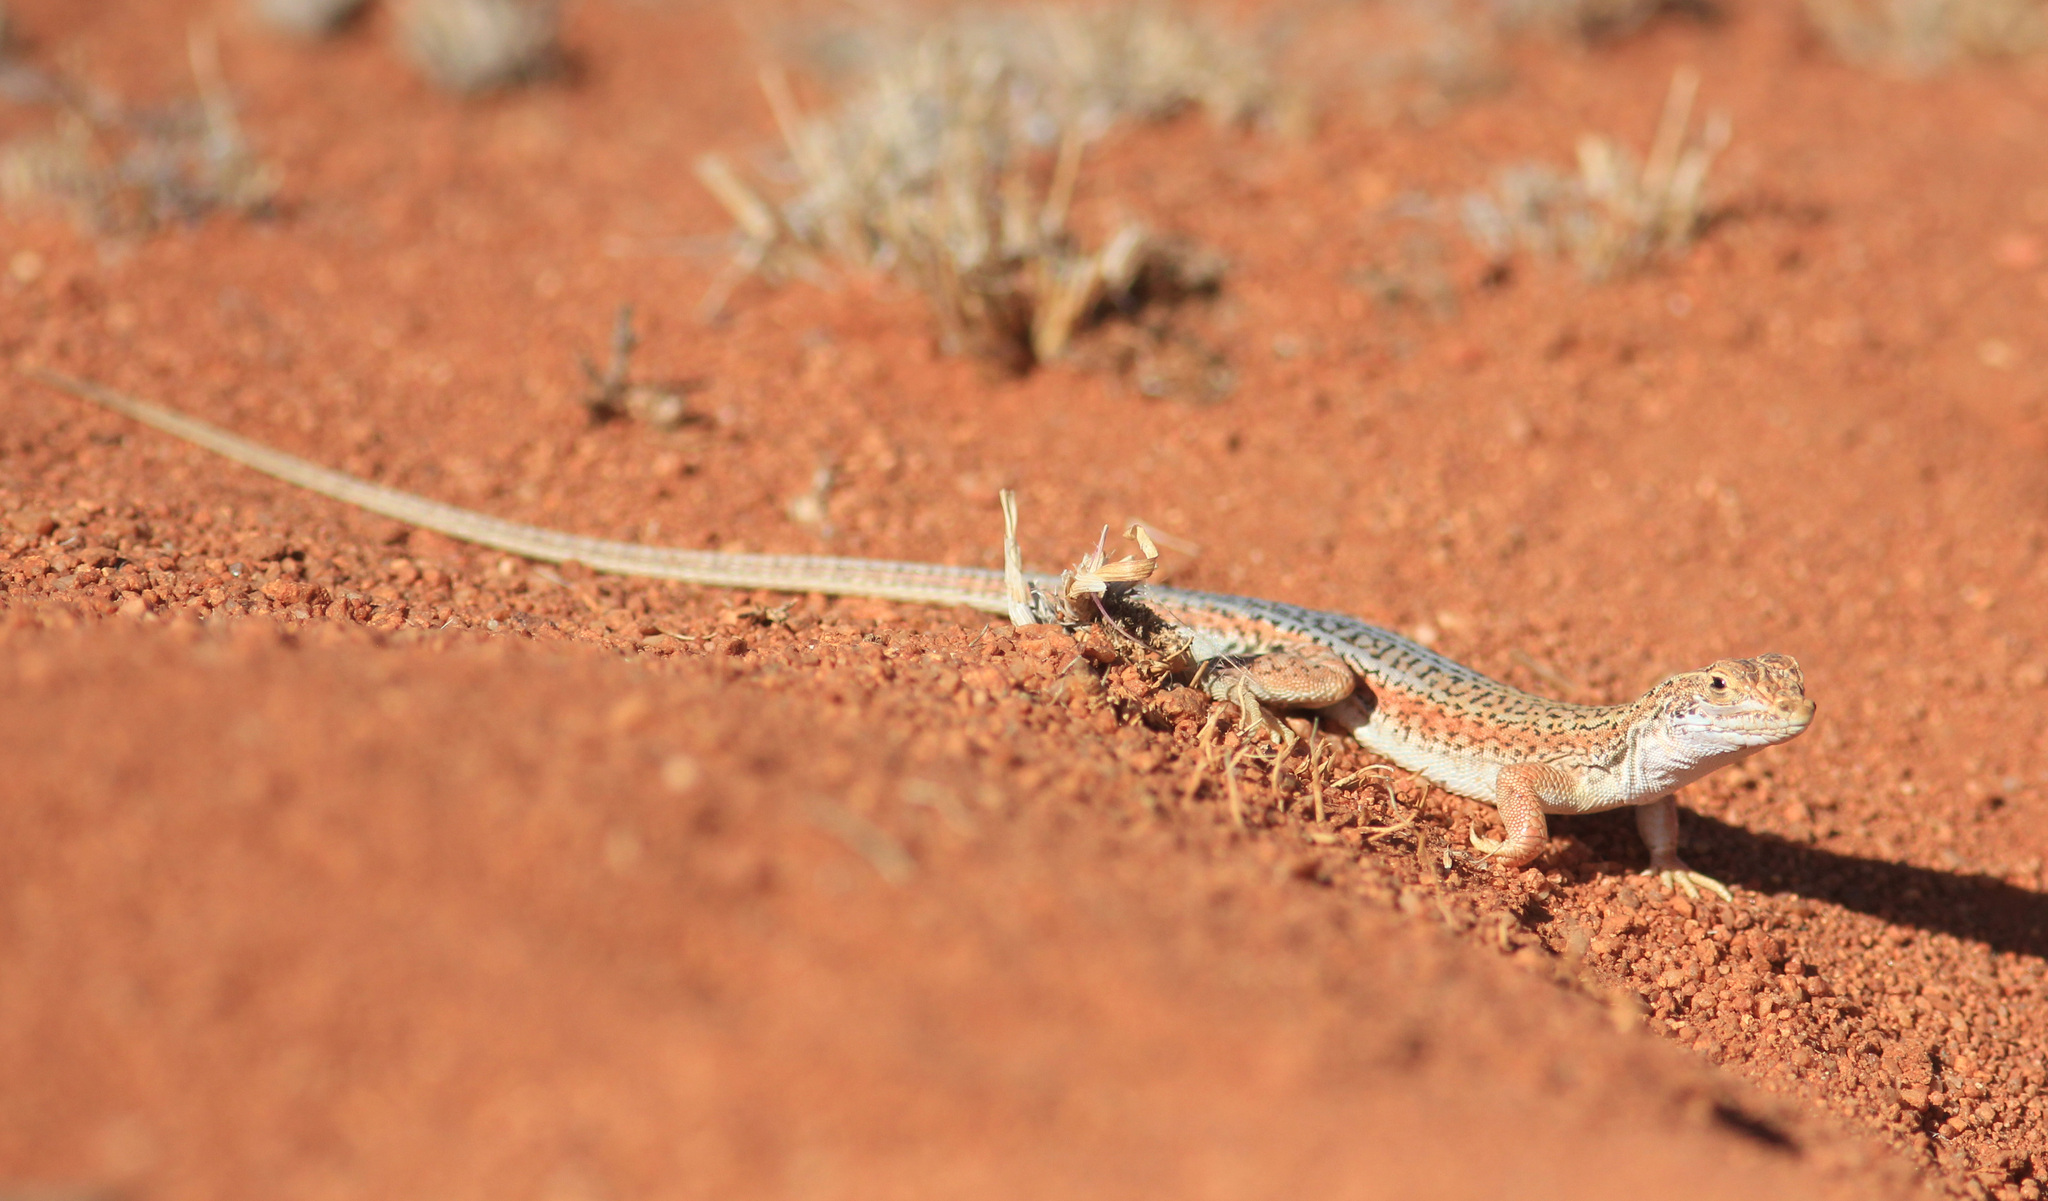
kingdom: Animalia
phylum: Chordata
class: Squamata
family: Lacertidae
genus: Meroles
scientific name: Meroles suborbitalis
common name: Spotted sand lizard
